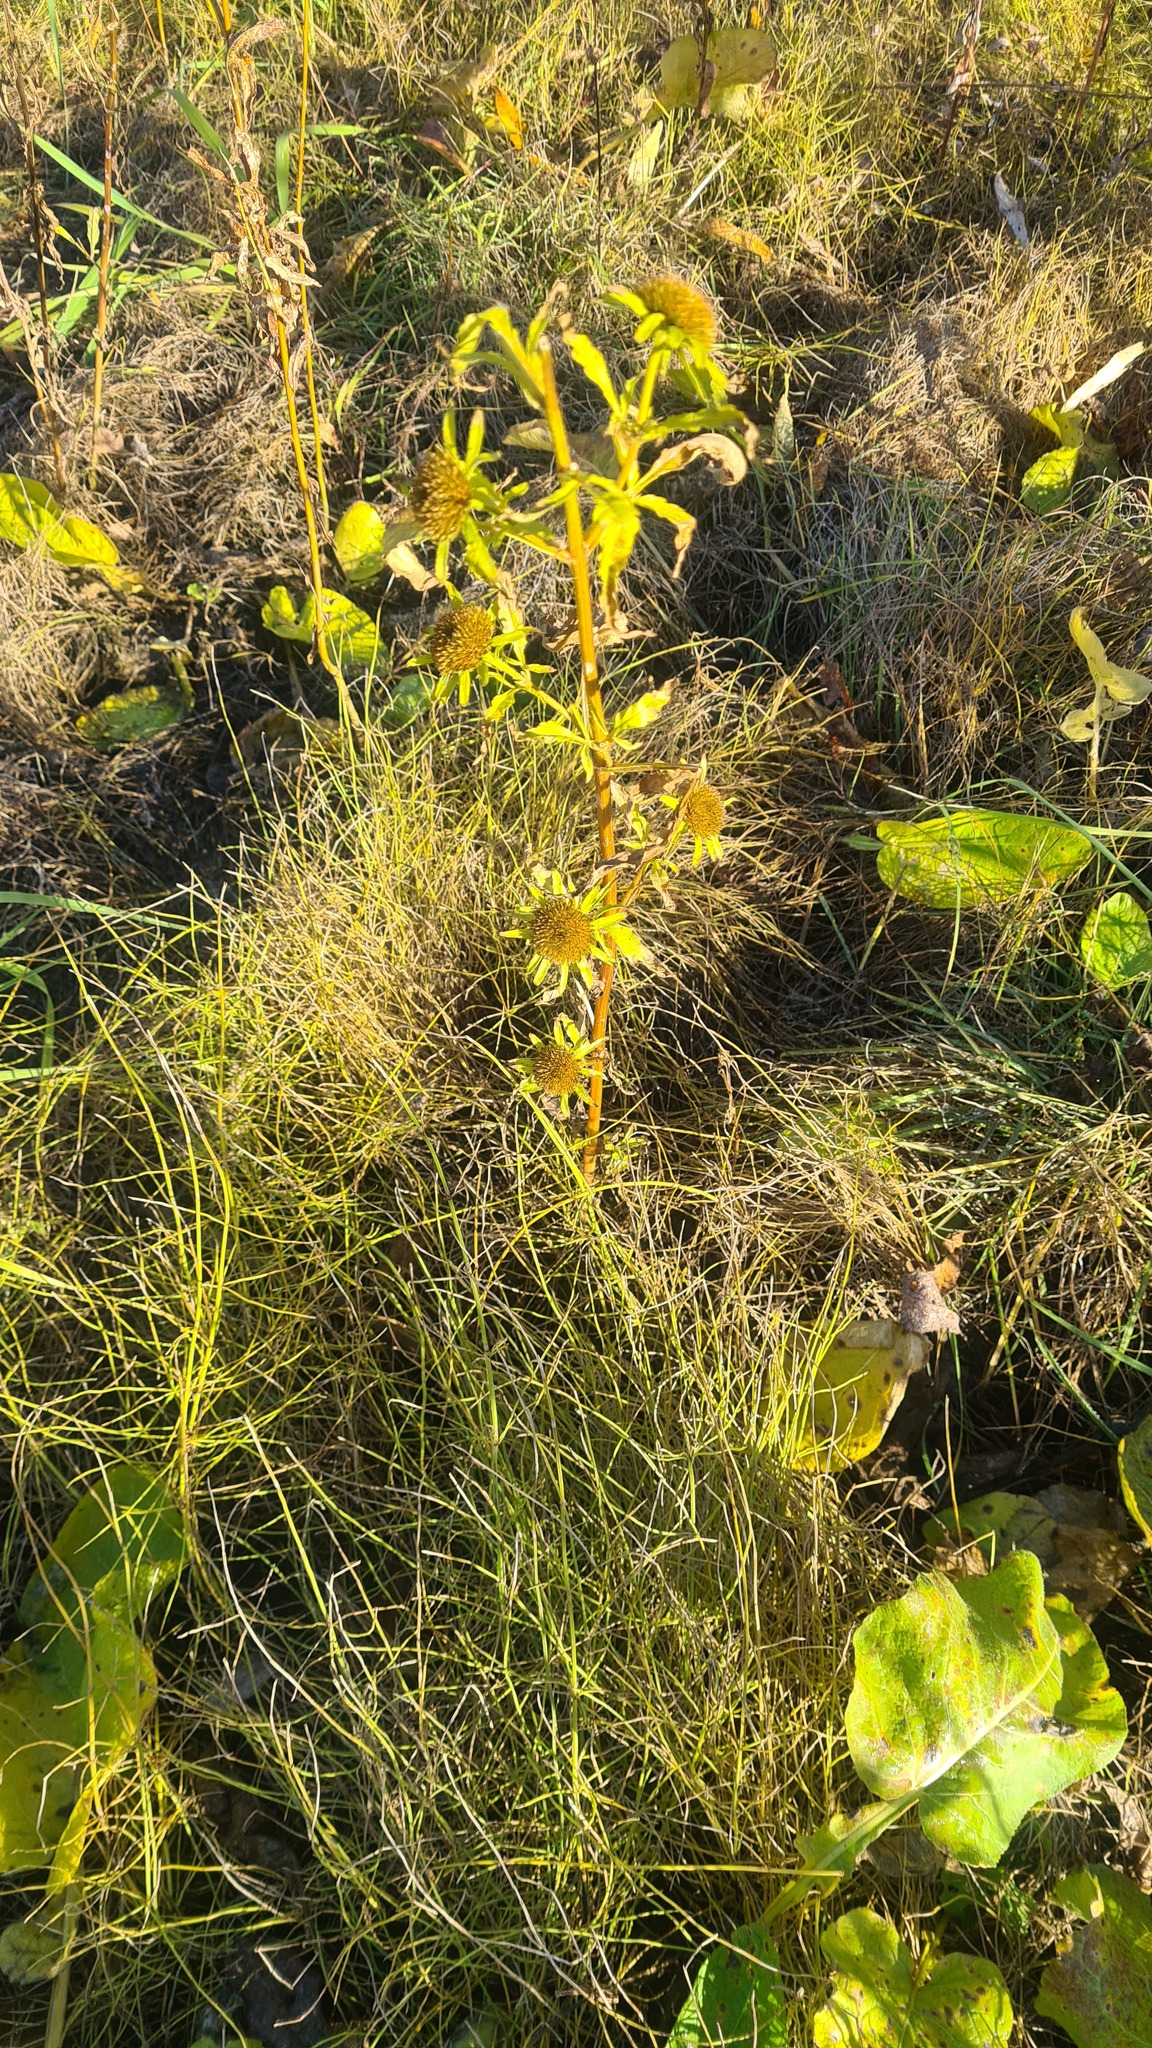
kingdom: Plantae
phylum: Tracheophyta
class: Magnoliopsida
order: Asterales
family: Asteraceae
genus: Bidens
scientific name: Bidens radiata
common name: Radiating bur-marigold
